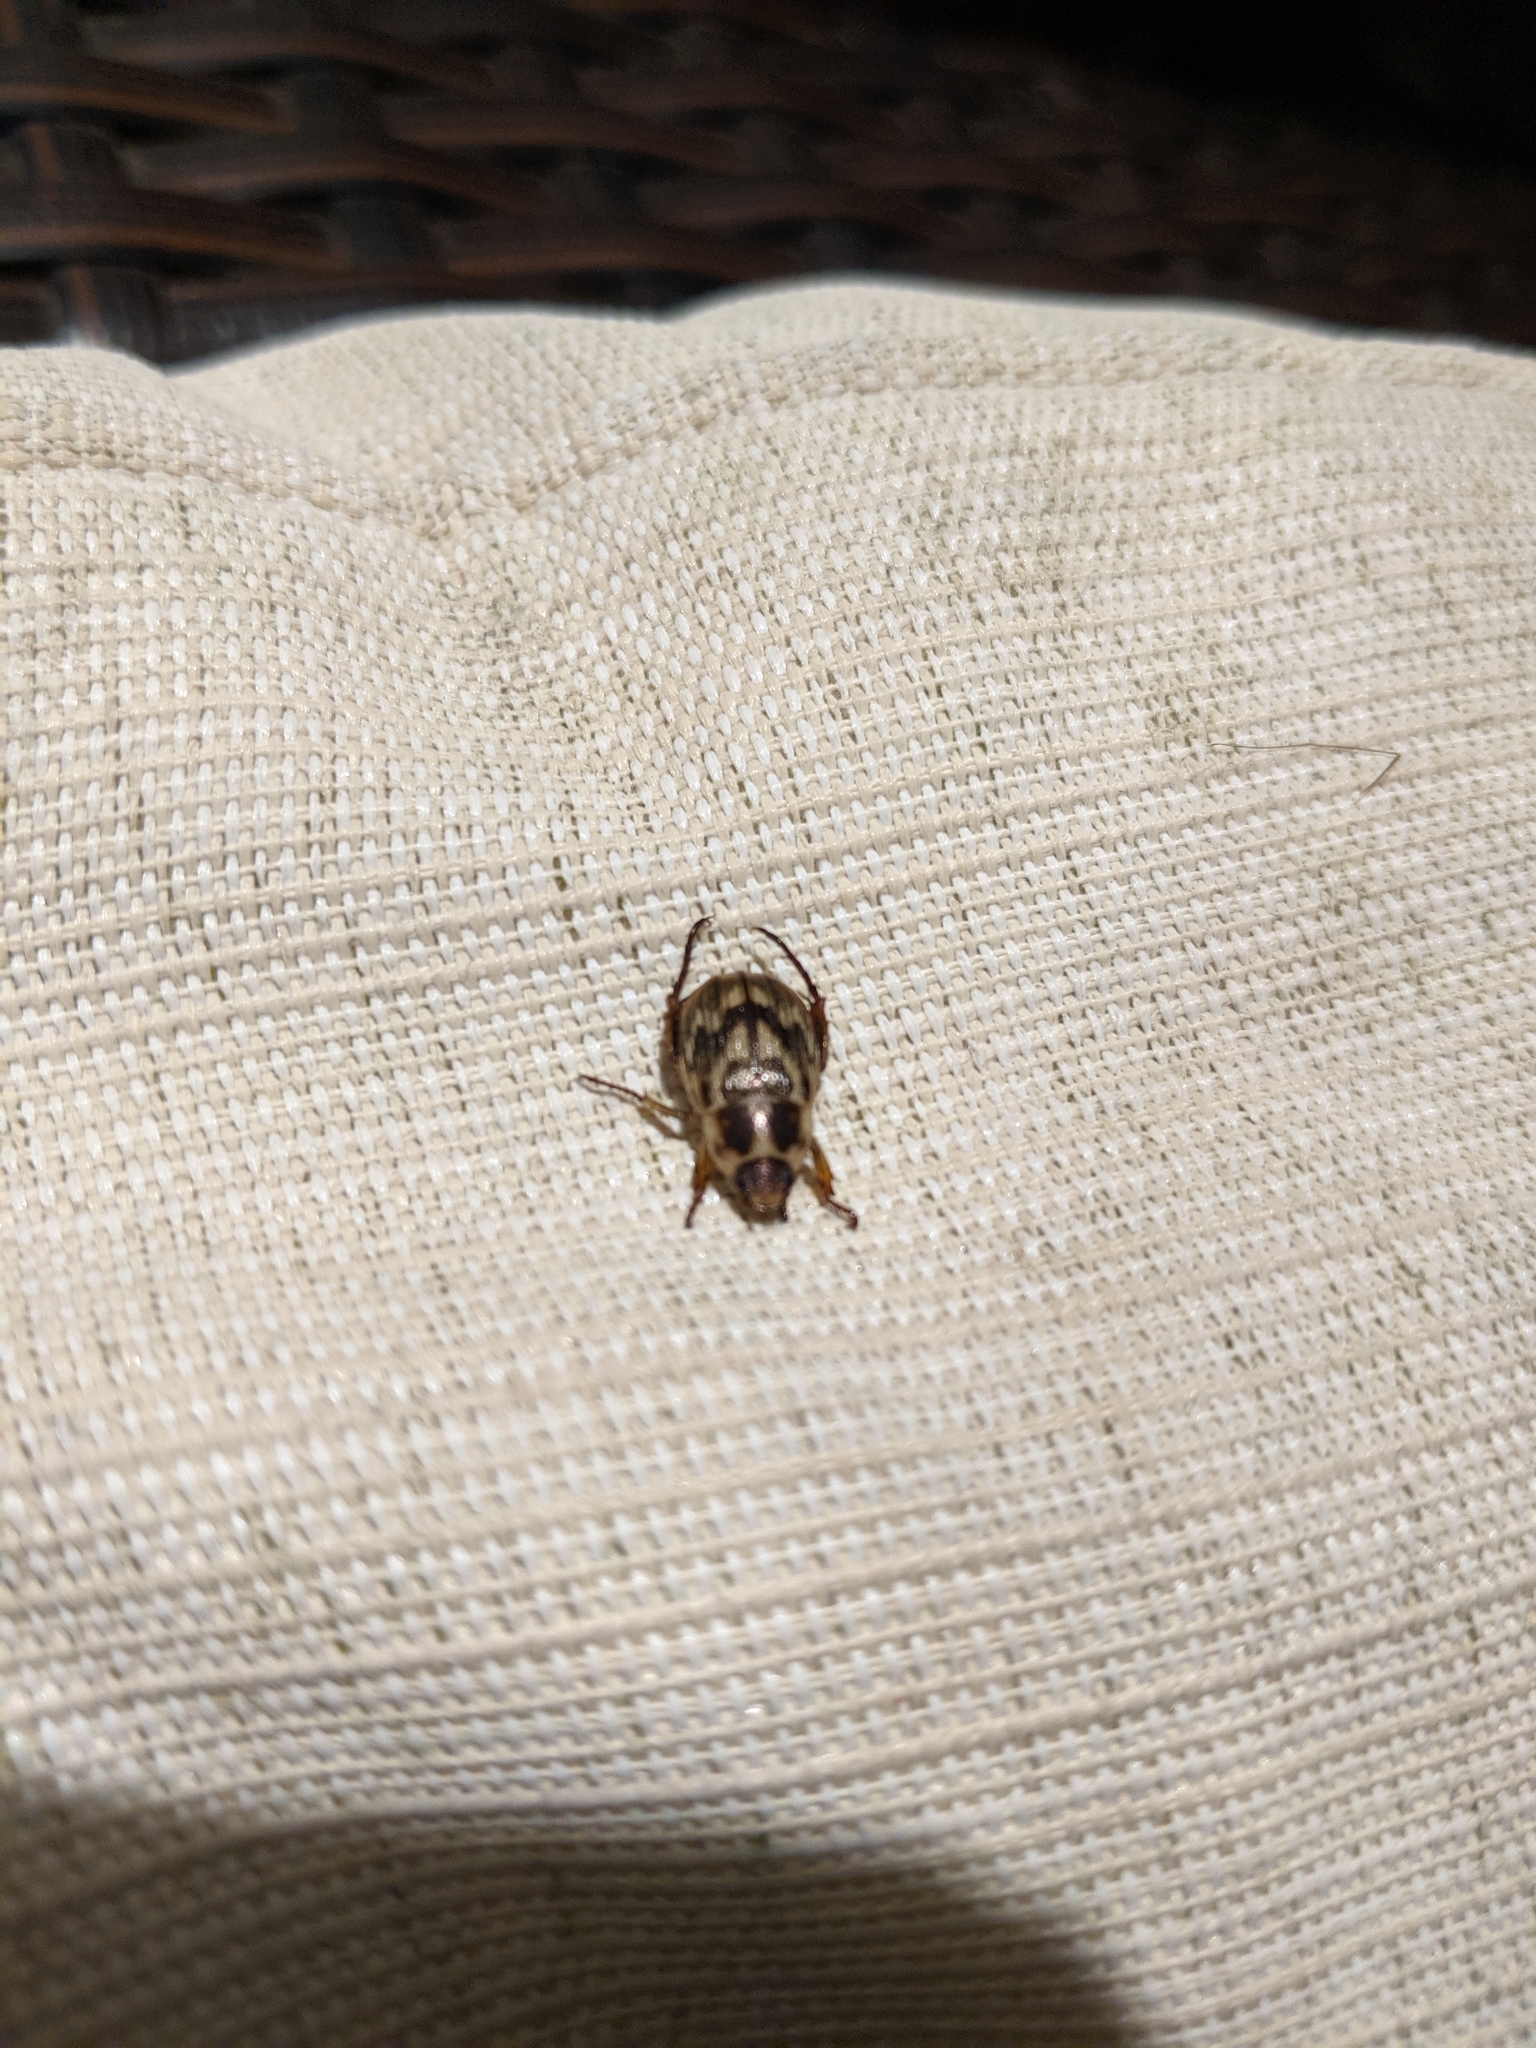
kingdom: Animalia
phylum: Arthropoda
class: Insecta
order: Coleoptera
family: Scarabaeidae
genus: Exomala
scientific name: Exomala orientalis
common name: Oriental beetle
